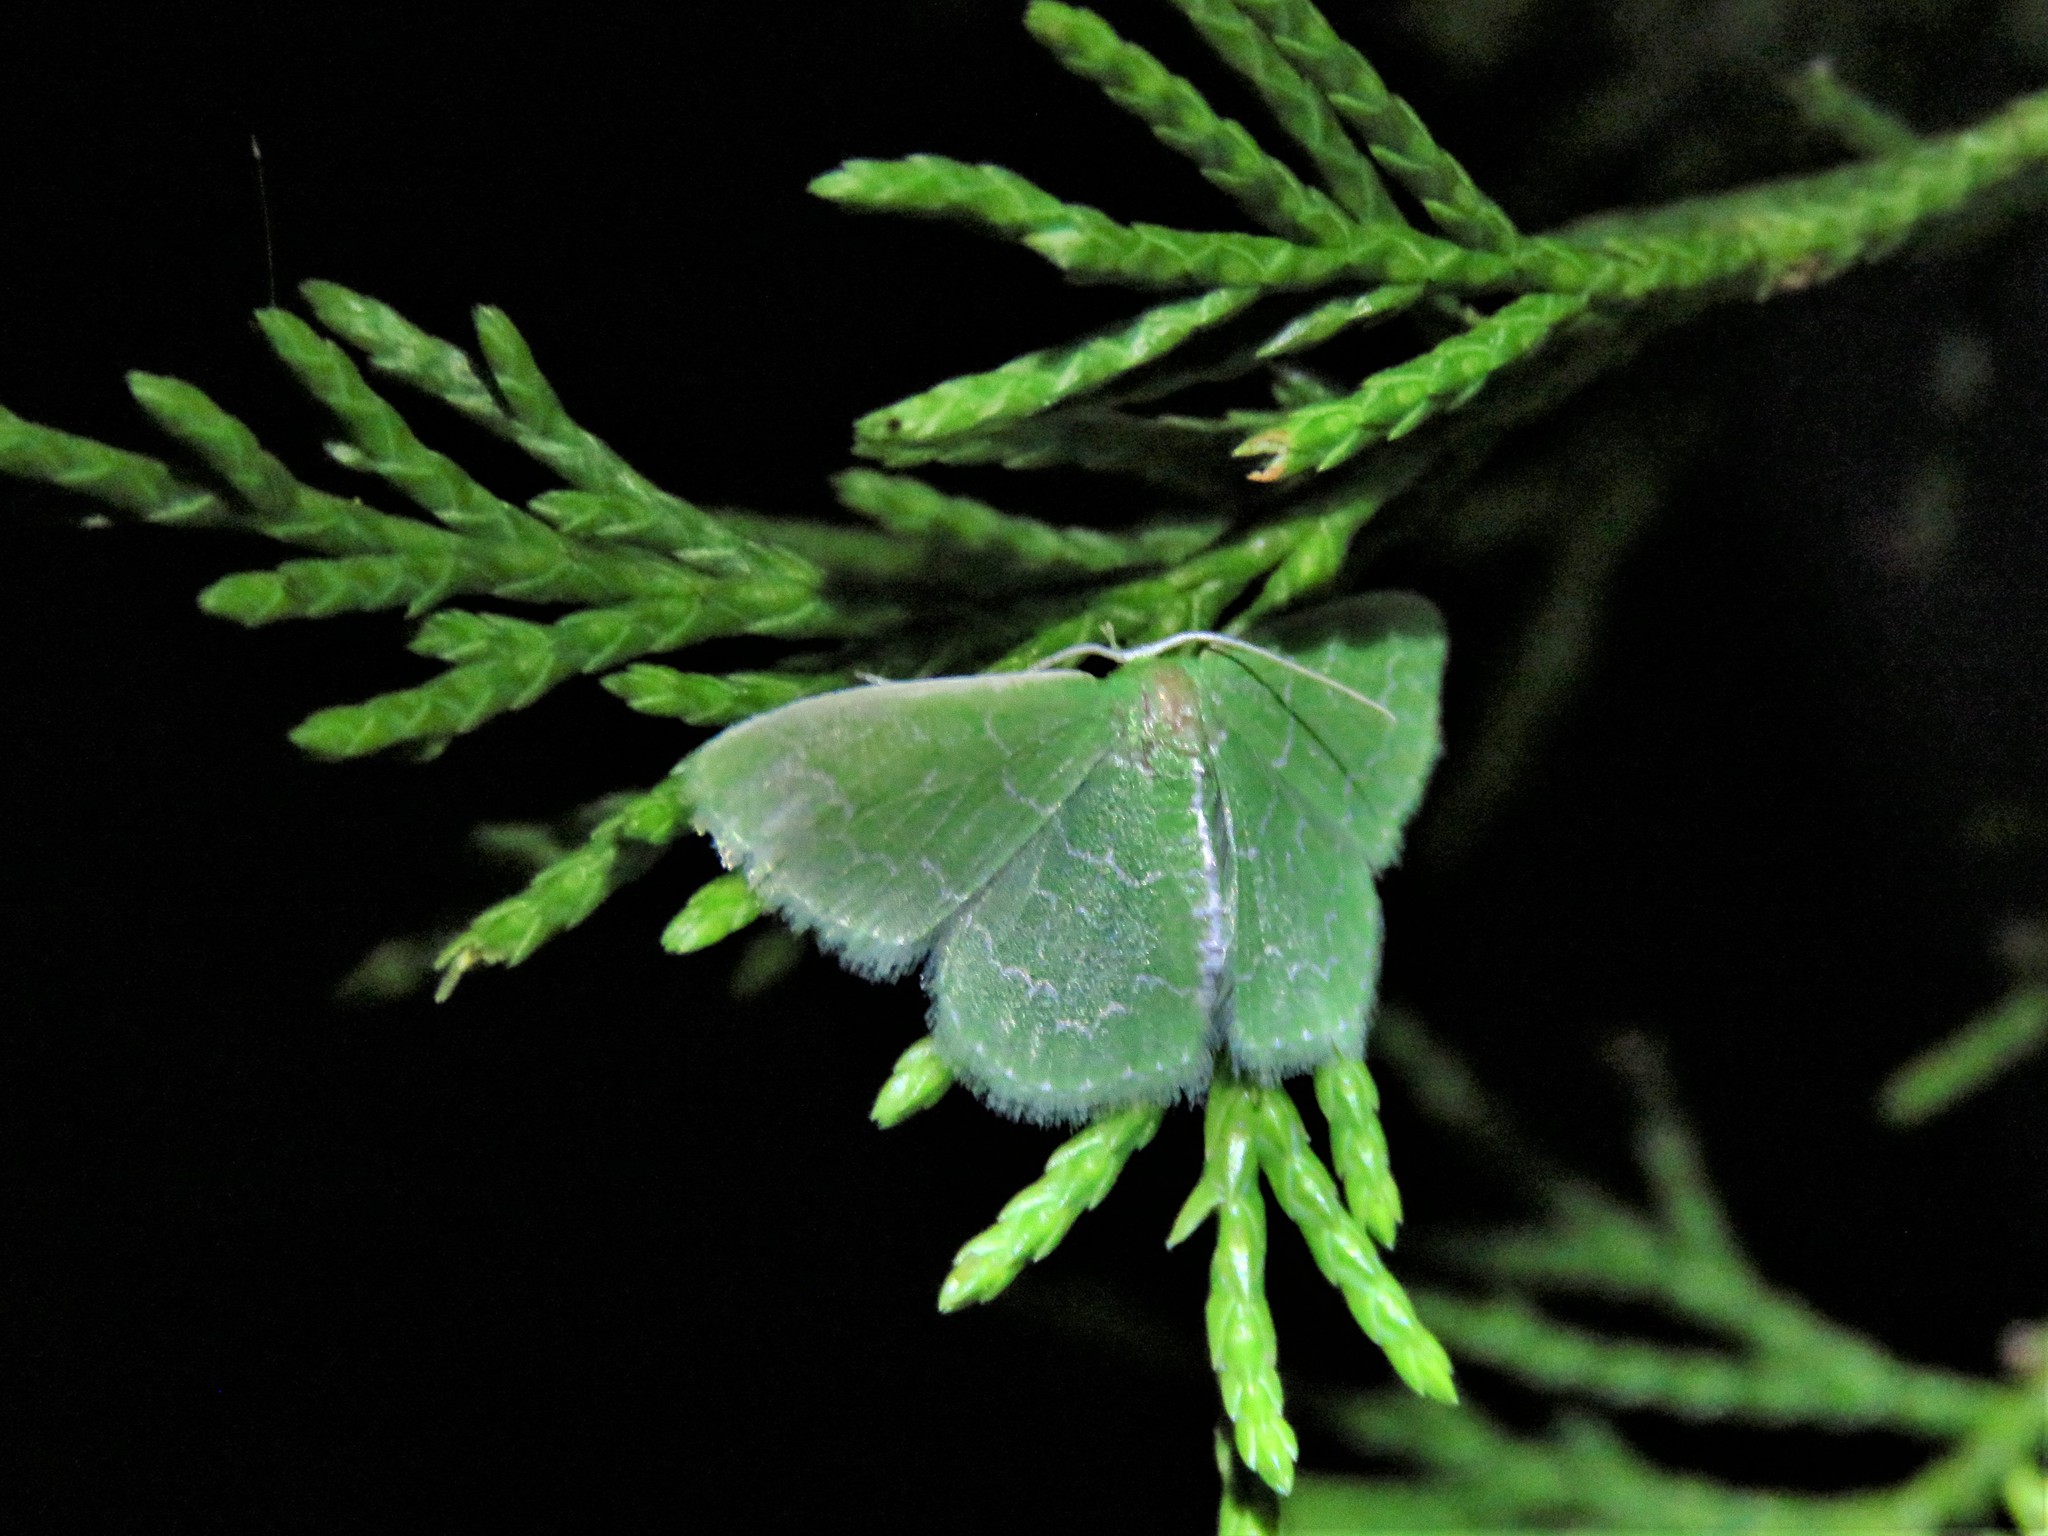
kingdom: Animalia
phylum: Arthropoda
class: Insecta
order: Lepidoptera
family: Geometridae
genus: Synchlora
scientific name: Synchlora frondaria
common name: Southern emerald
